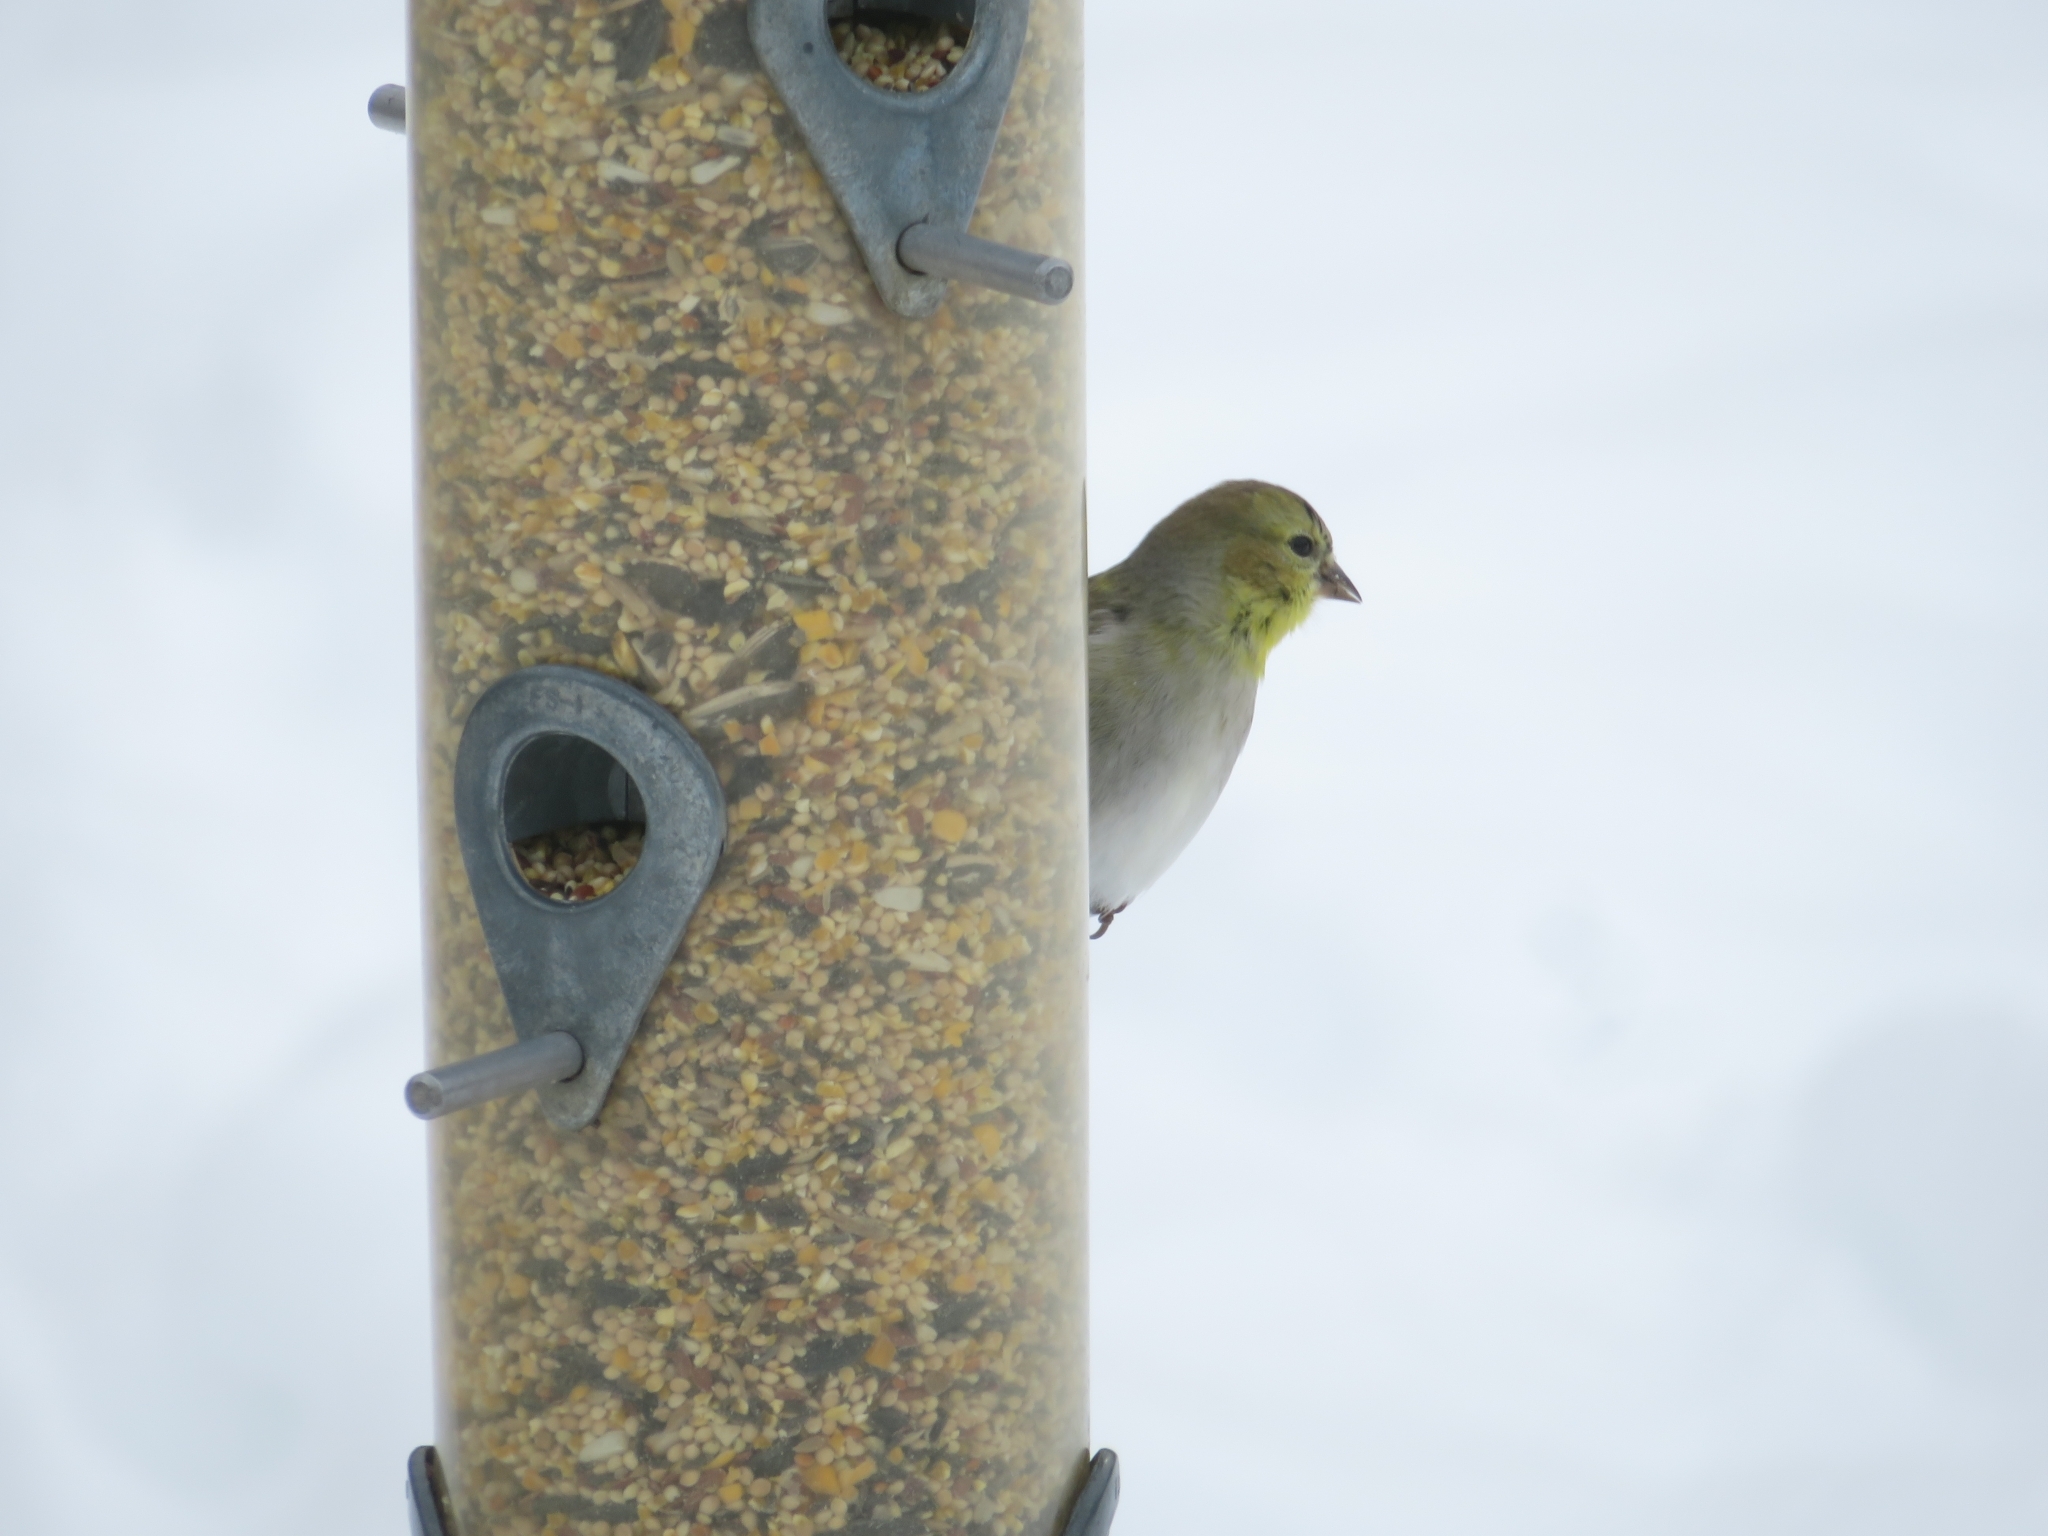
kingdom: Animalia
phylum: Chordata
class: Aves
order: Passeriformes
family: Fringillidae
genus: Spinus
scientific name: Spinus tristis
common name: American goldfinch
